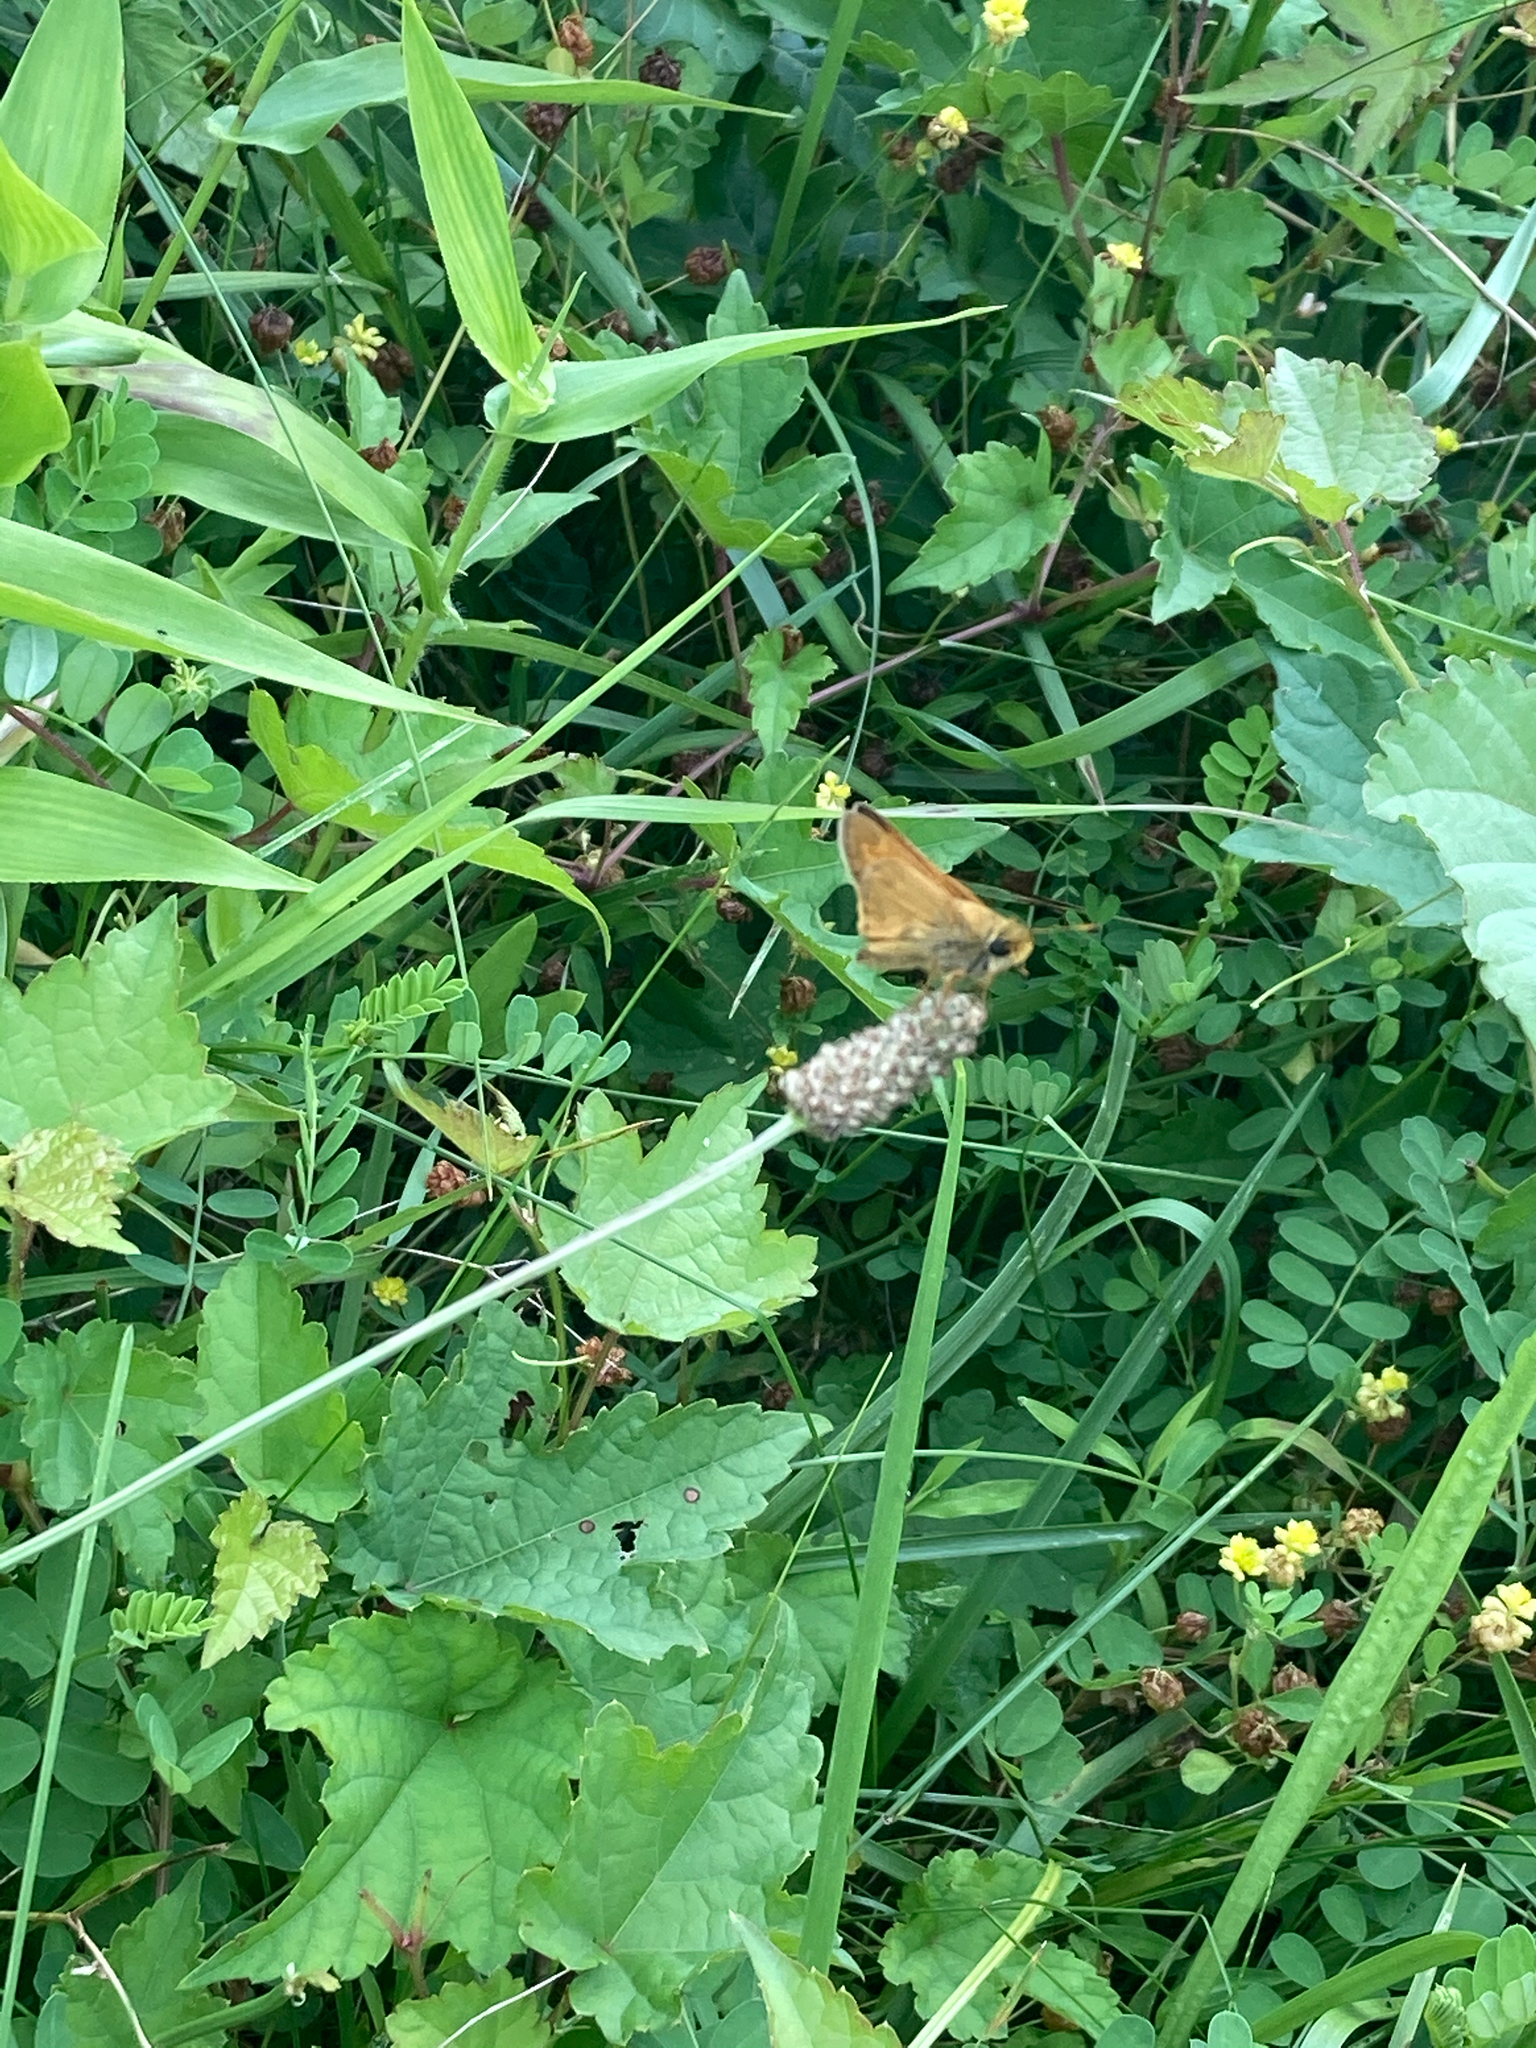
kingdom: Animalia
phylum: Arthropoda
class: Insecta
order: Lepidoptera
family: Hesperiidae
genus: Atalopedes
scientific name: Atalopedes
